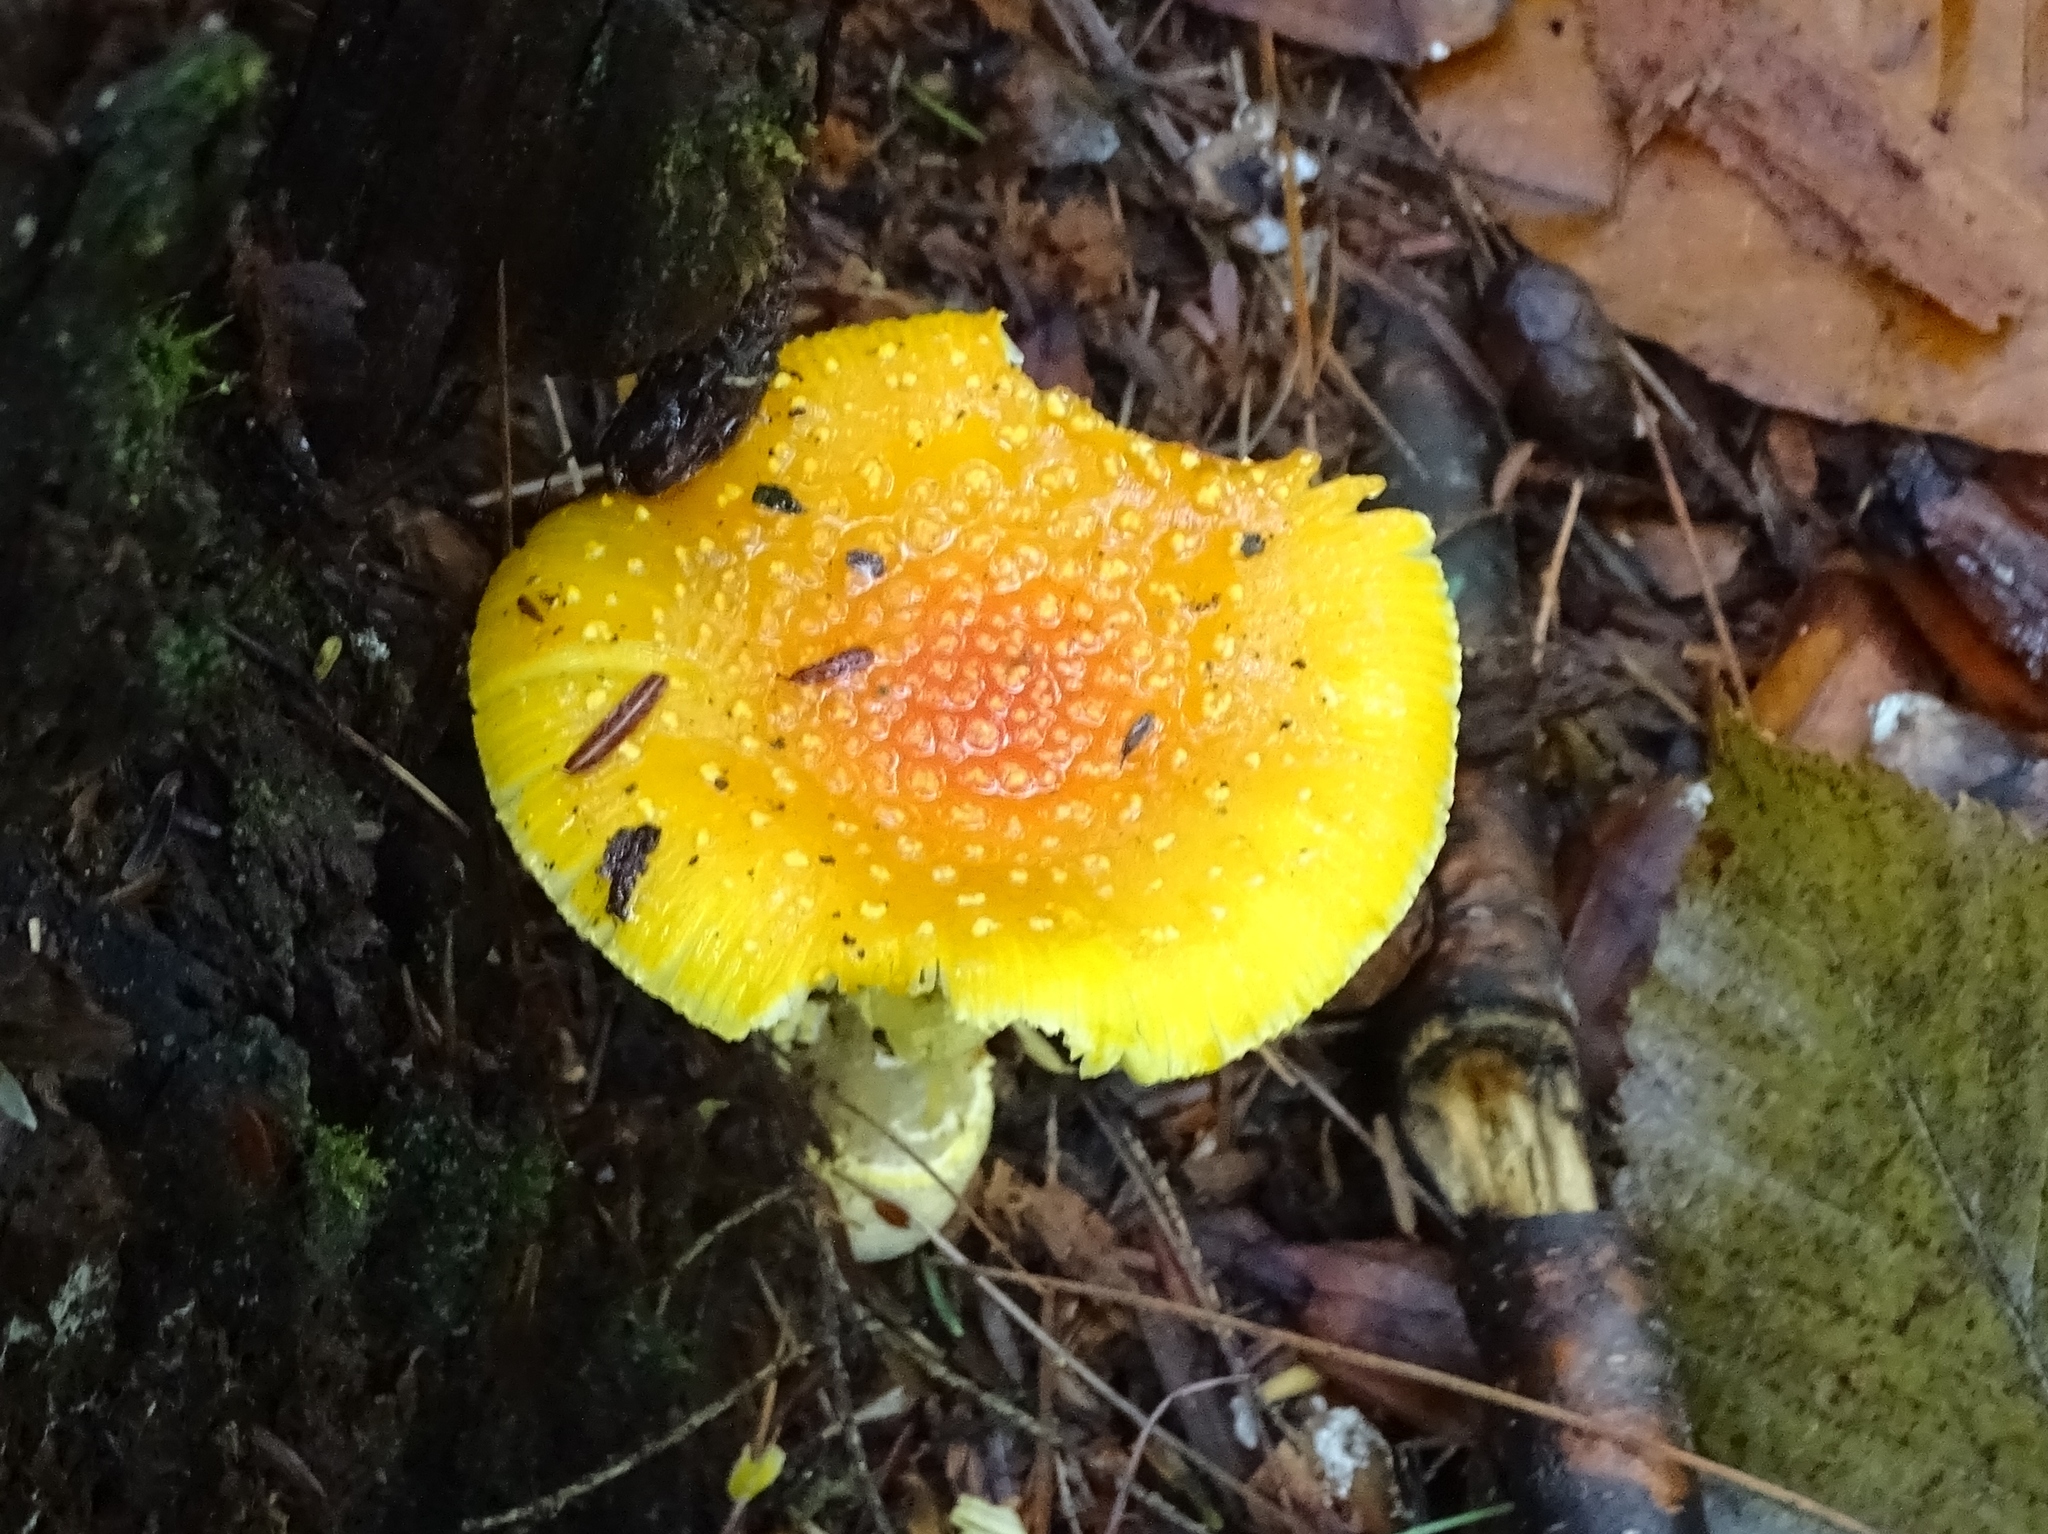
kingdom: Fungi
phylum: Basidiomycota
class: Agaricomycetes
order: Agaricales
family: Amanitaceae
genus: Amanita
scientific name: Amanita frostiana
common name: Frost's amanita
